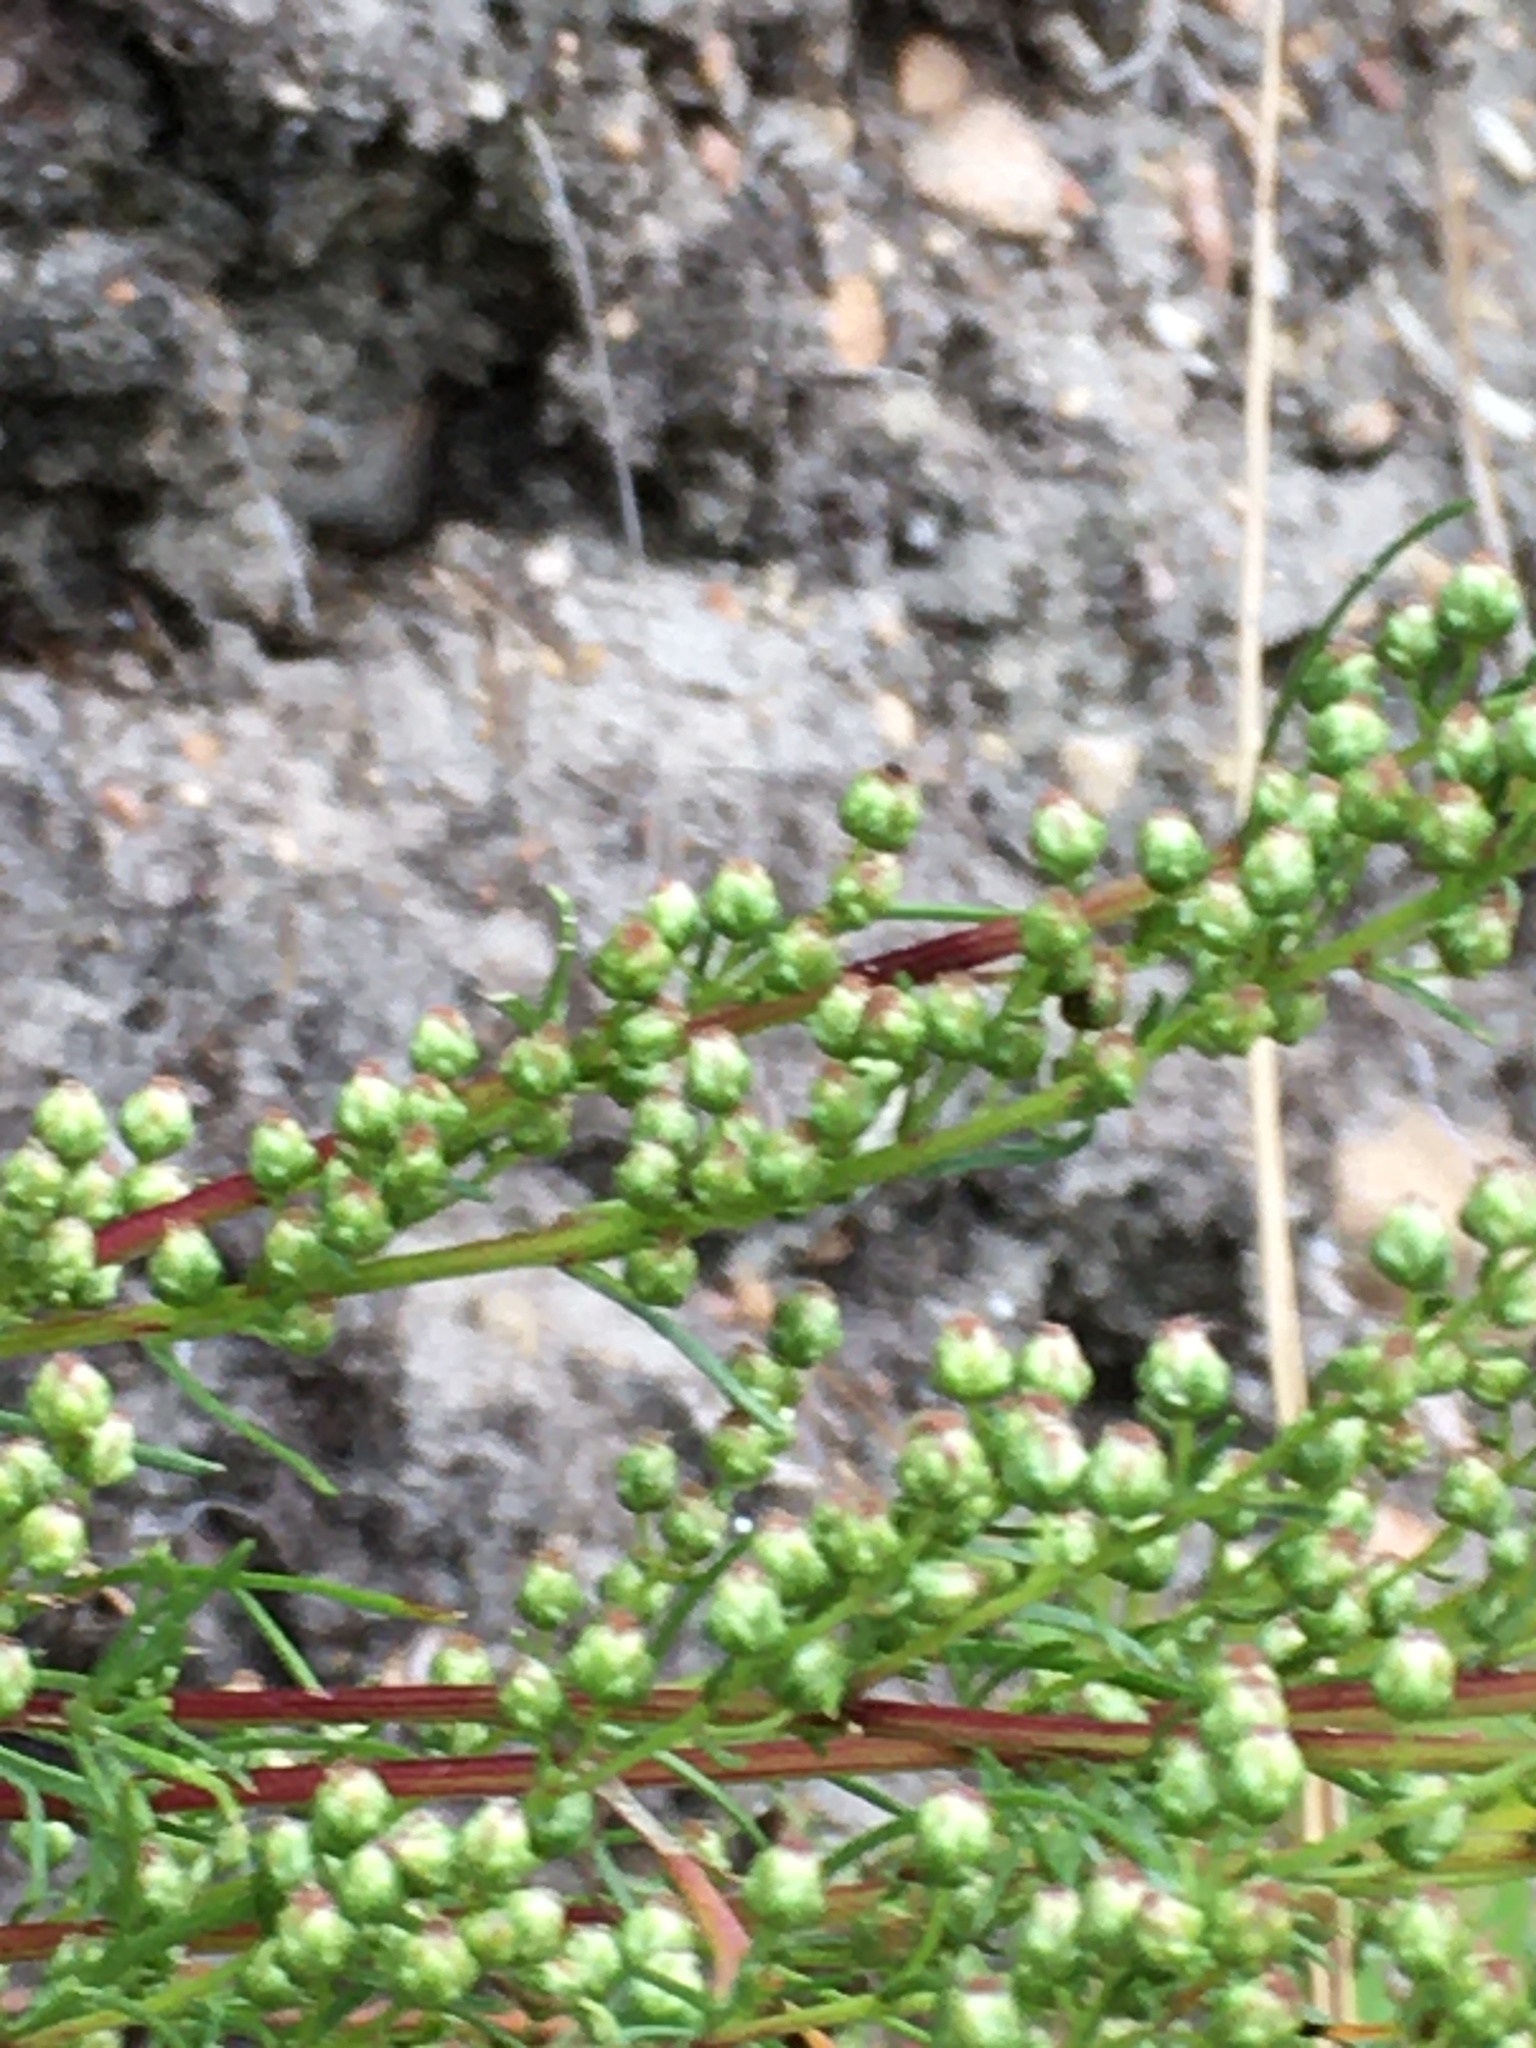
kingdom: Plantae
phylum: Tracheophyta
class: Magnoliopsida
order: Asterales
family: Asteraceae
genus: Artemisia
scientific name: Artemisia campestris
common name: Field wormwood
